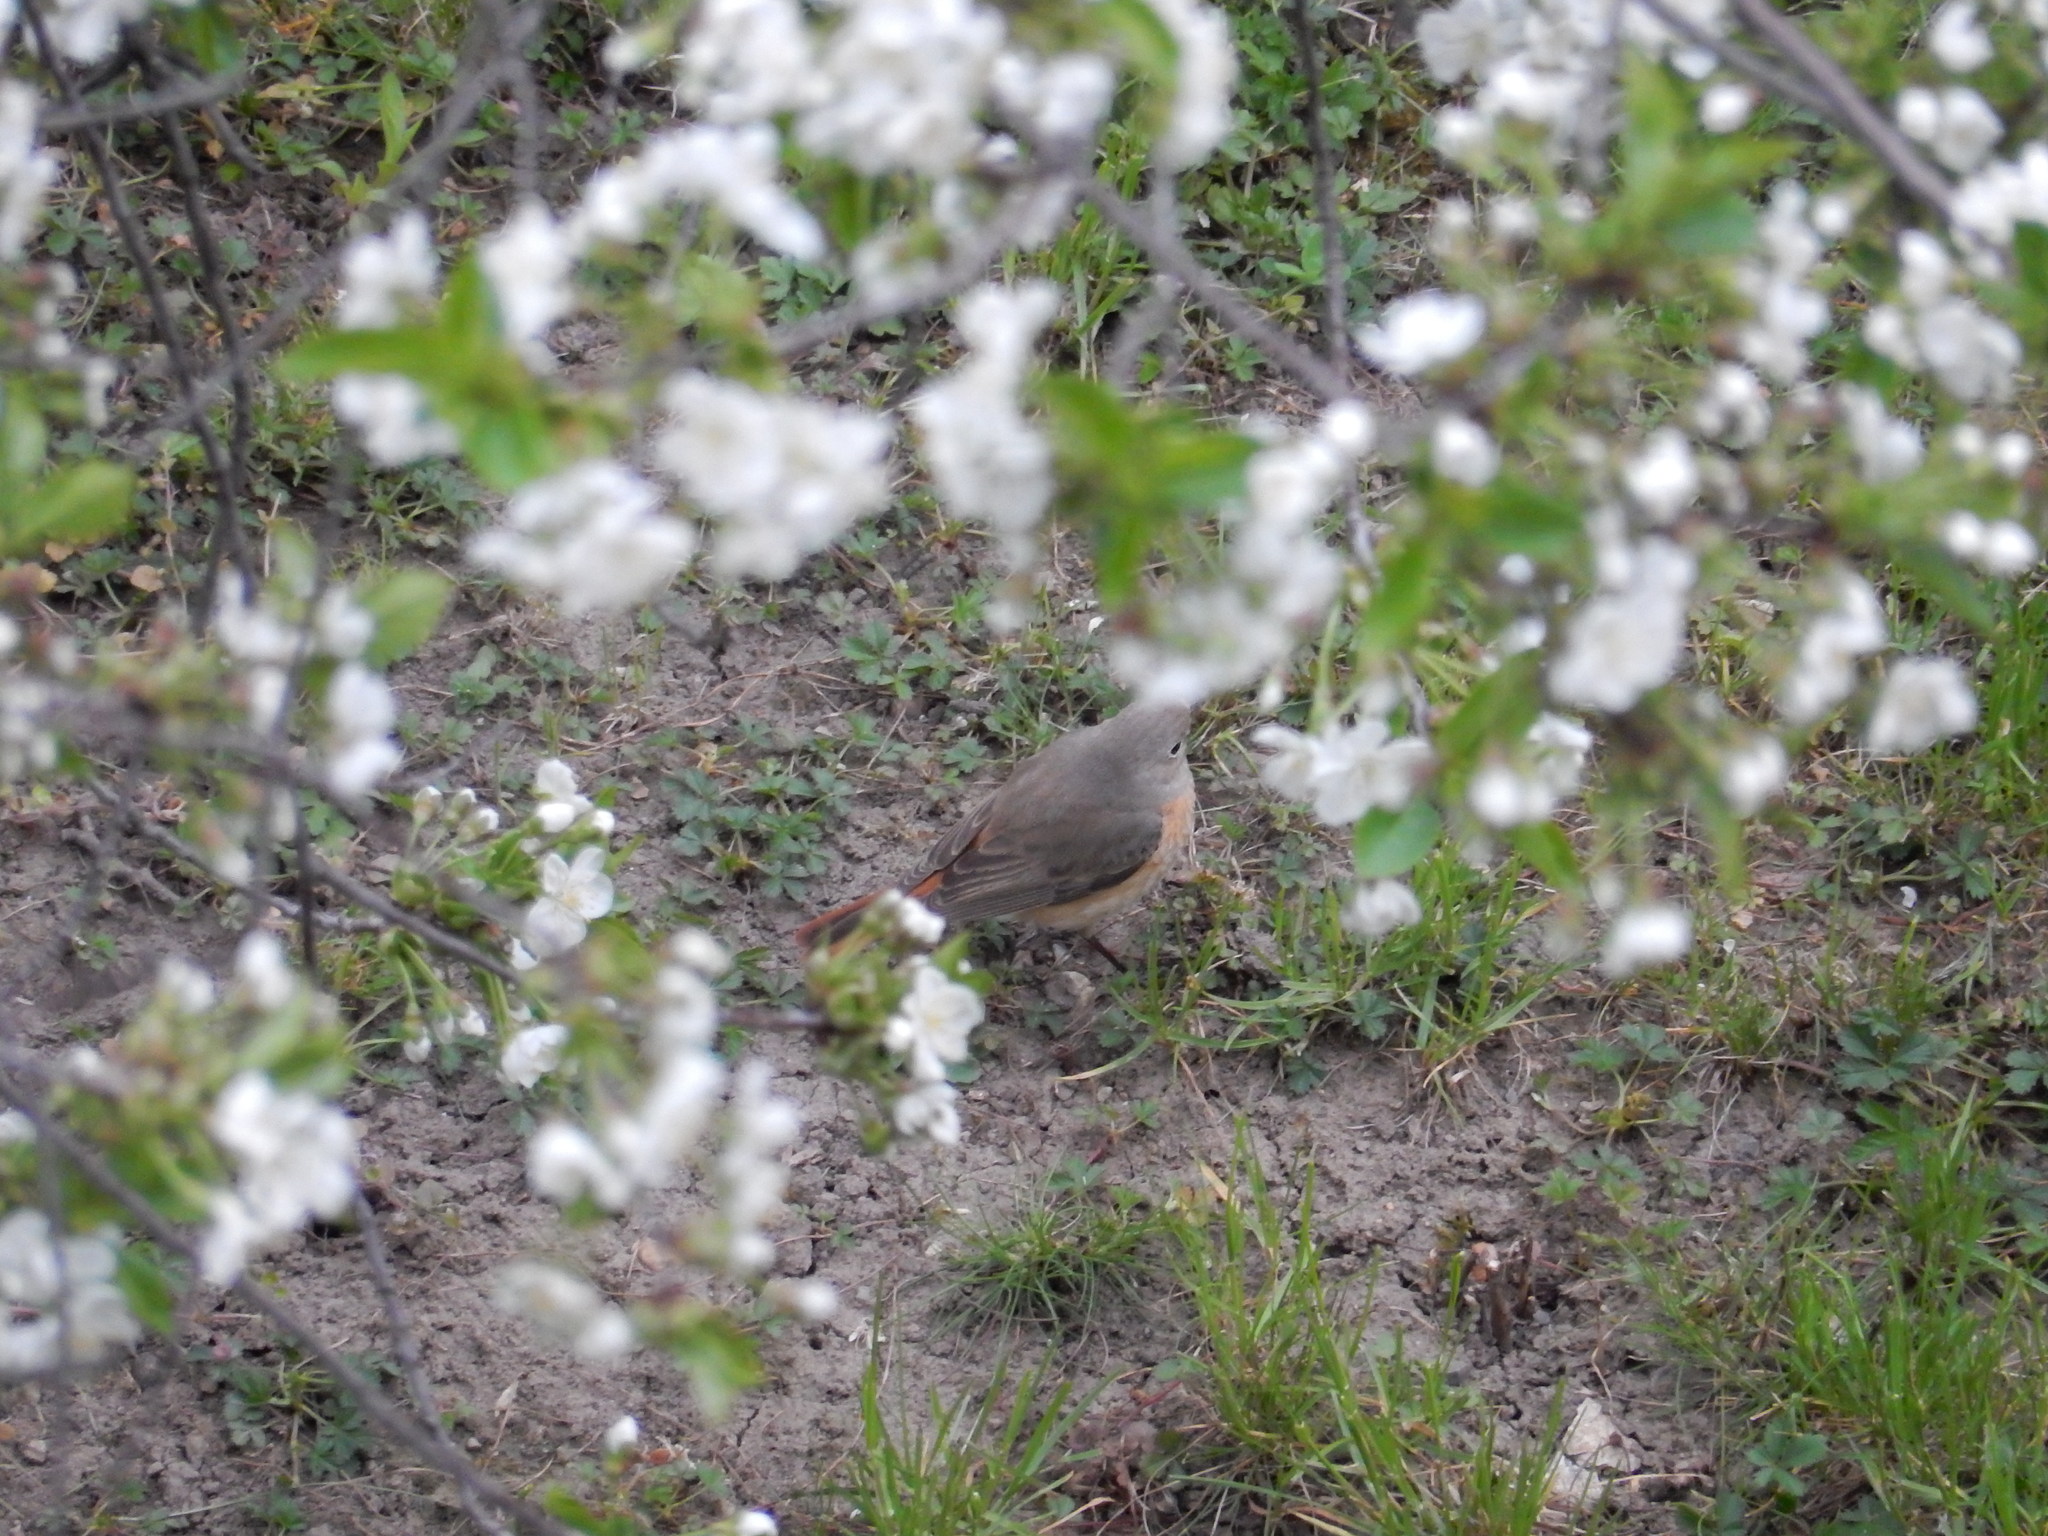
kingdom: Animalia
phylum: Chordata
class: Aves
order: Passeriformes
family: Muscicapidae
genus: Phoenicurus
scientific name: Phoenicurus phoenicurus
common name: Common redstart
